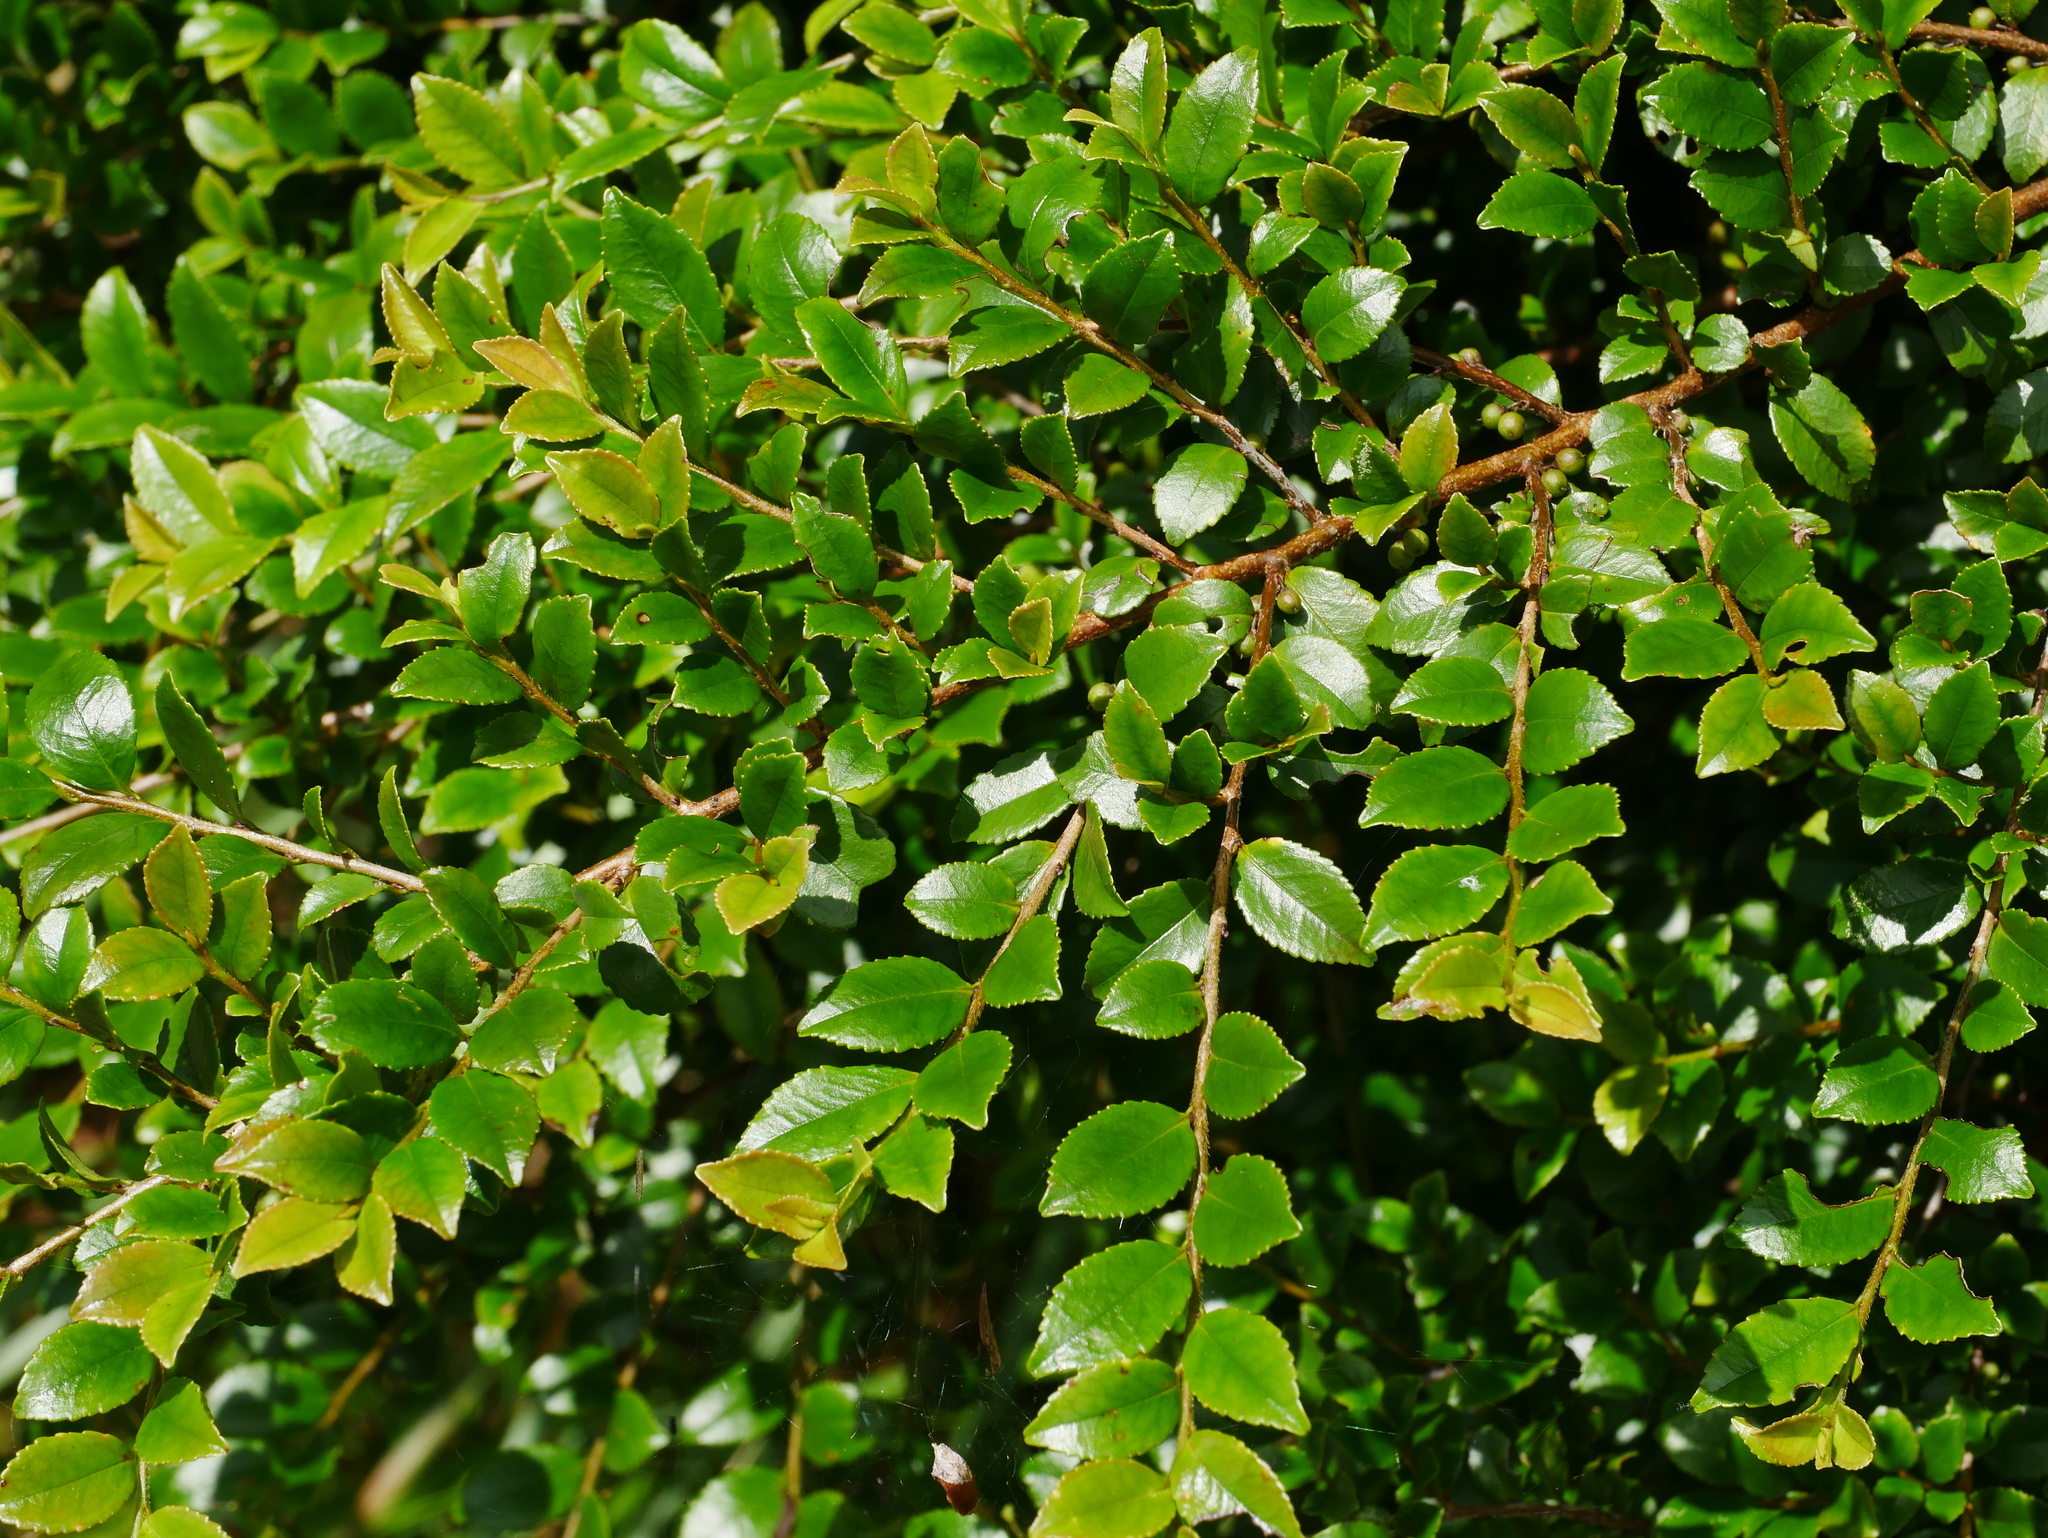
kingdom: Plantae
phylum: Tracheophyta
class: Magnoliopsida
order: Ericales
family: Pentaphylacaceae
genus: Eurya
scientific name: Eurya crenatifolia
